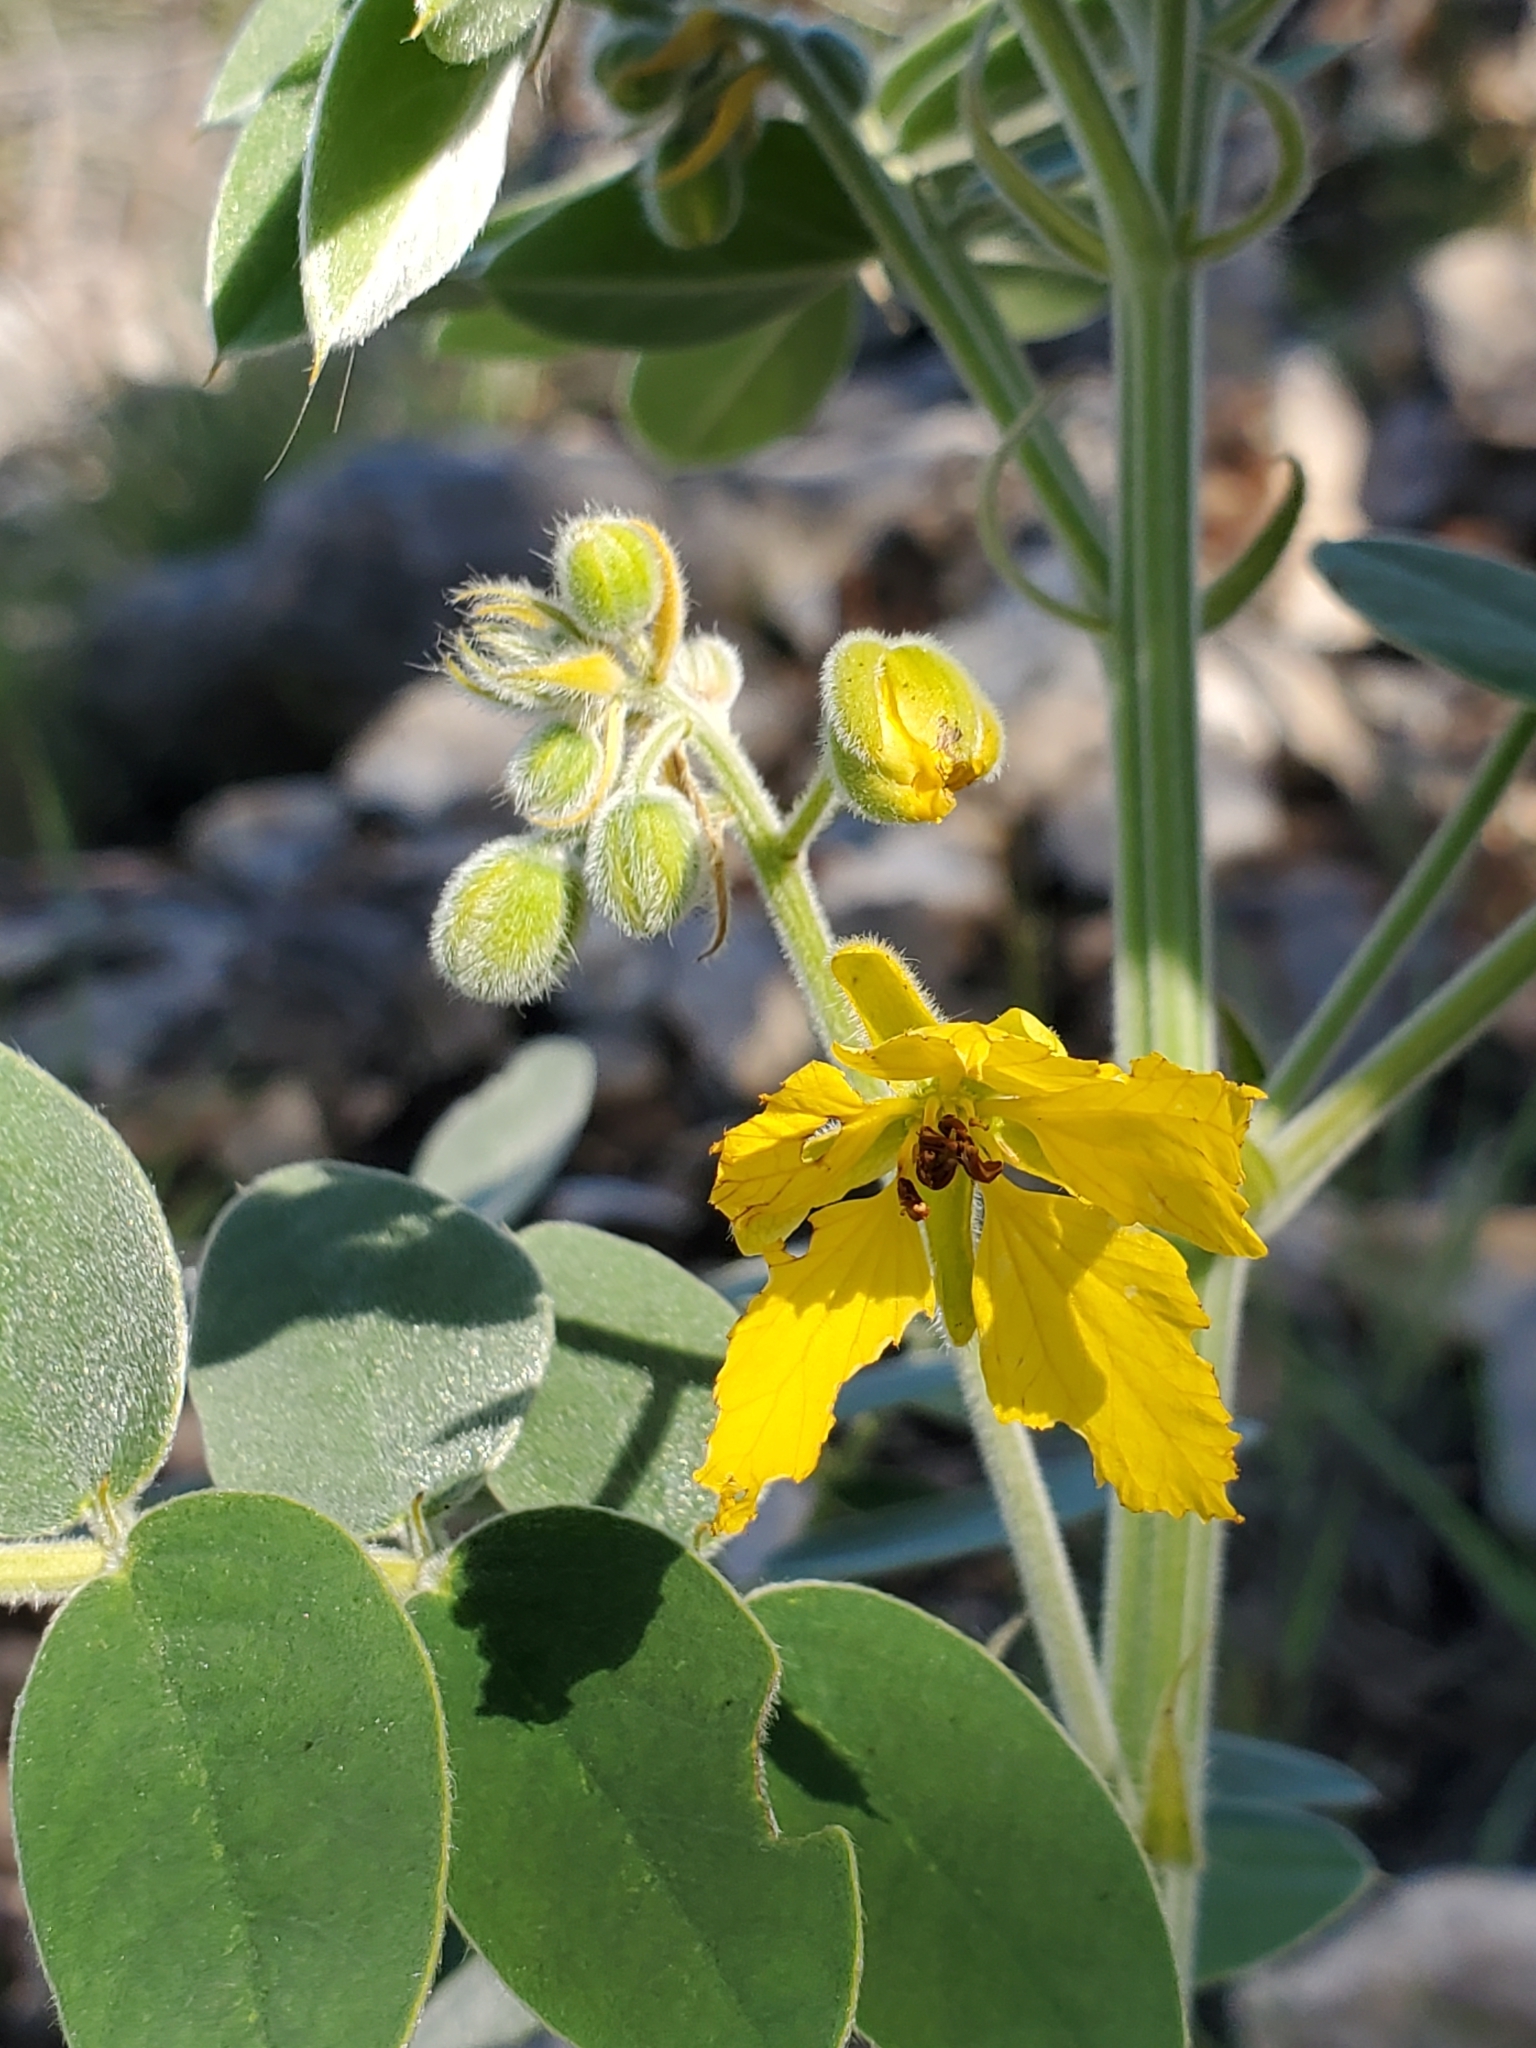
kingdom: Plantae
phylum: Tracheophyta
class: Magnoliopsida
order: Fabales
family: Fabaceae
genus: Senna
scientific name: Senna lindheimeriana
